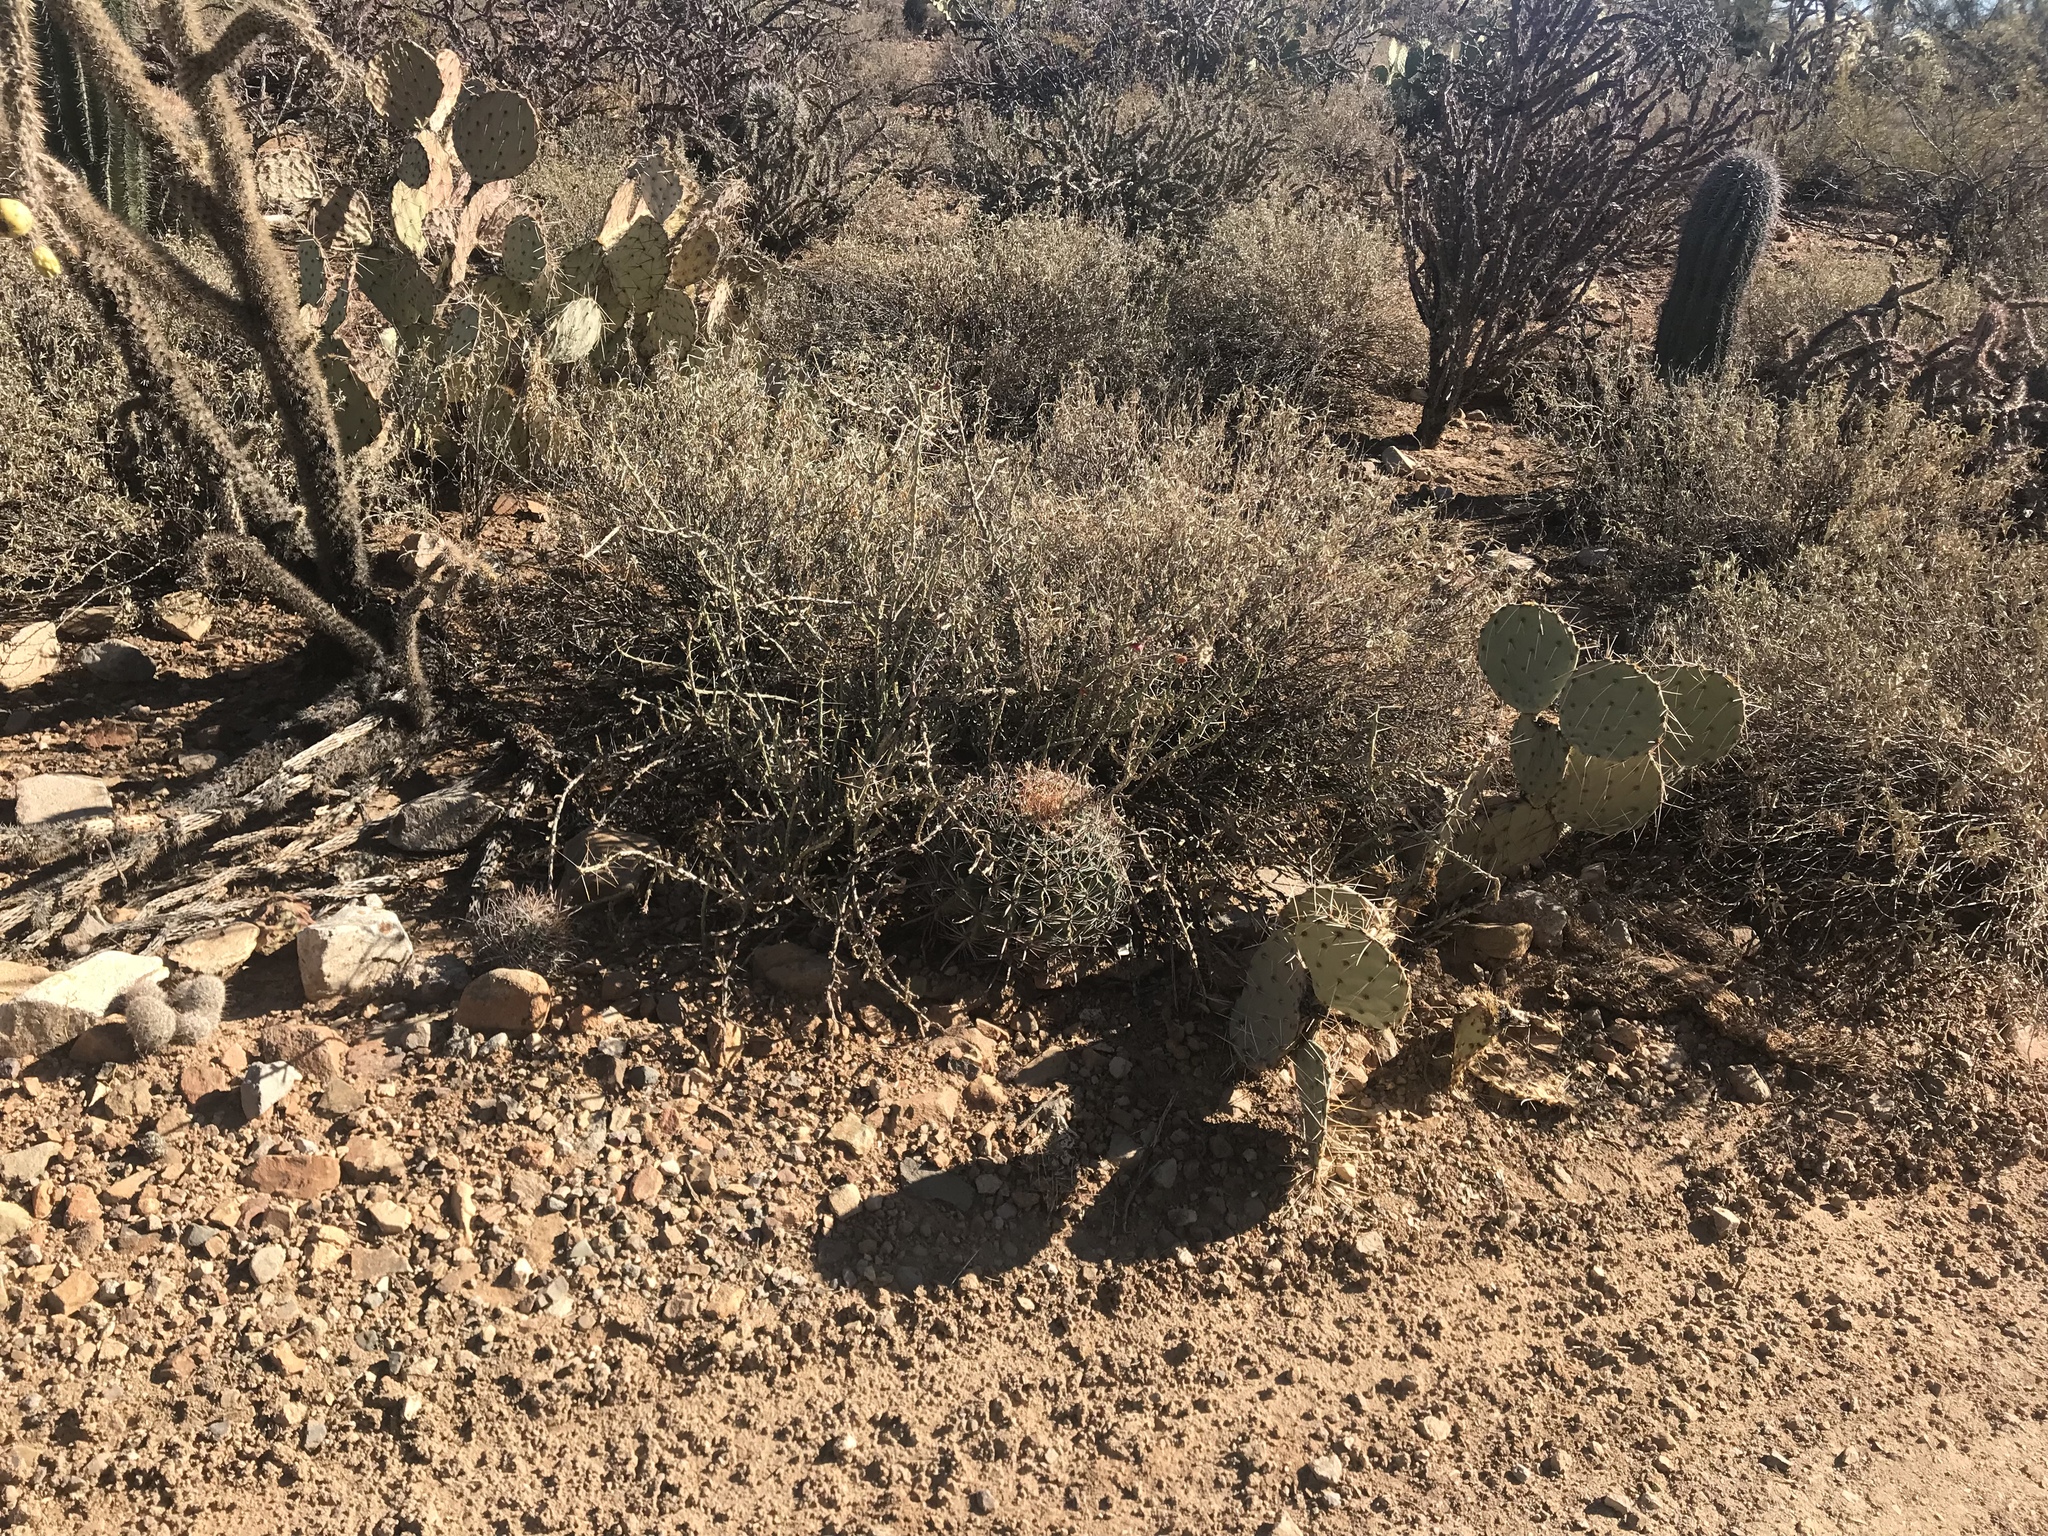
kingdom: Plantae
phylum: Tracheophyta
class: Magnoliopsida
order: Caryophyllales
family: Cactaceae
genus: Ferocactus
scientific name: Ferocactus wislizeni
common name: Candy barrel cactus
